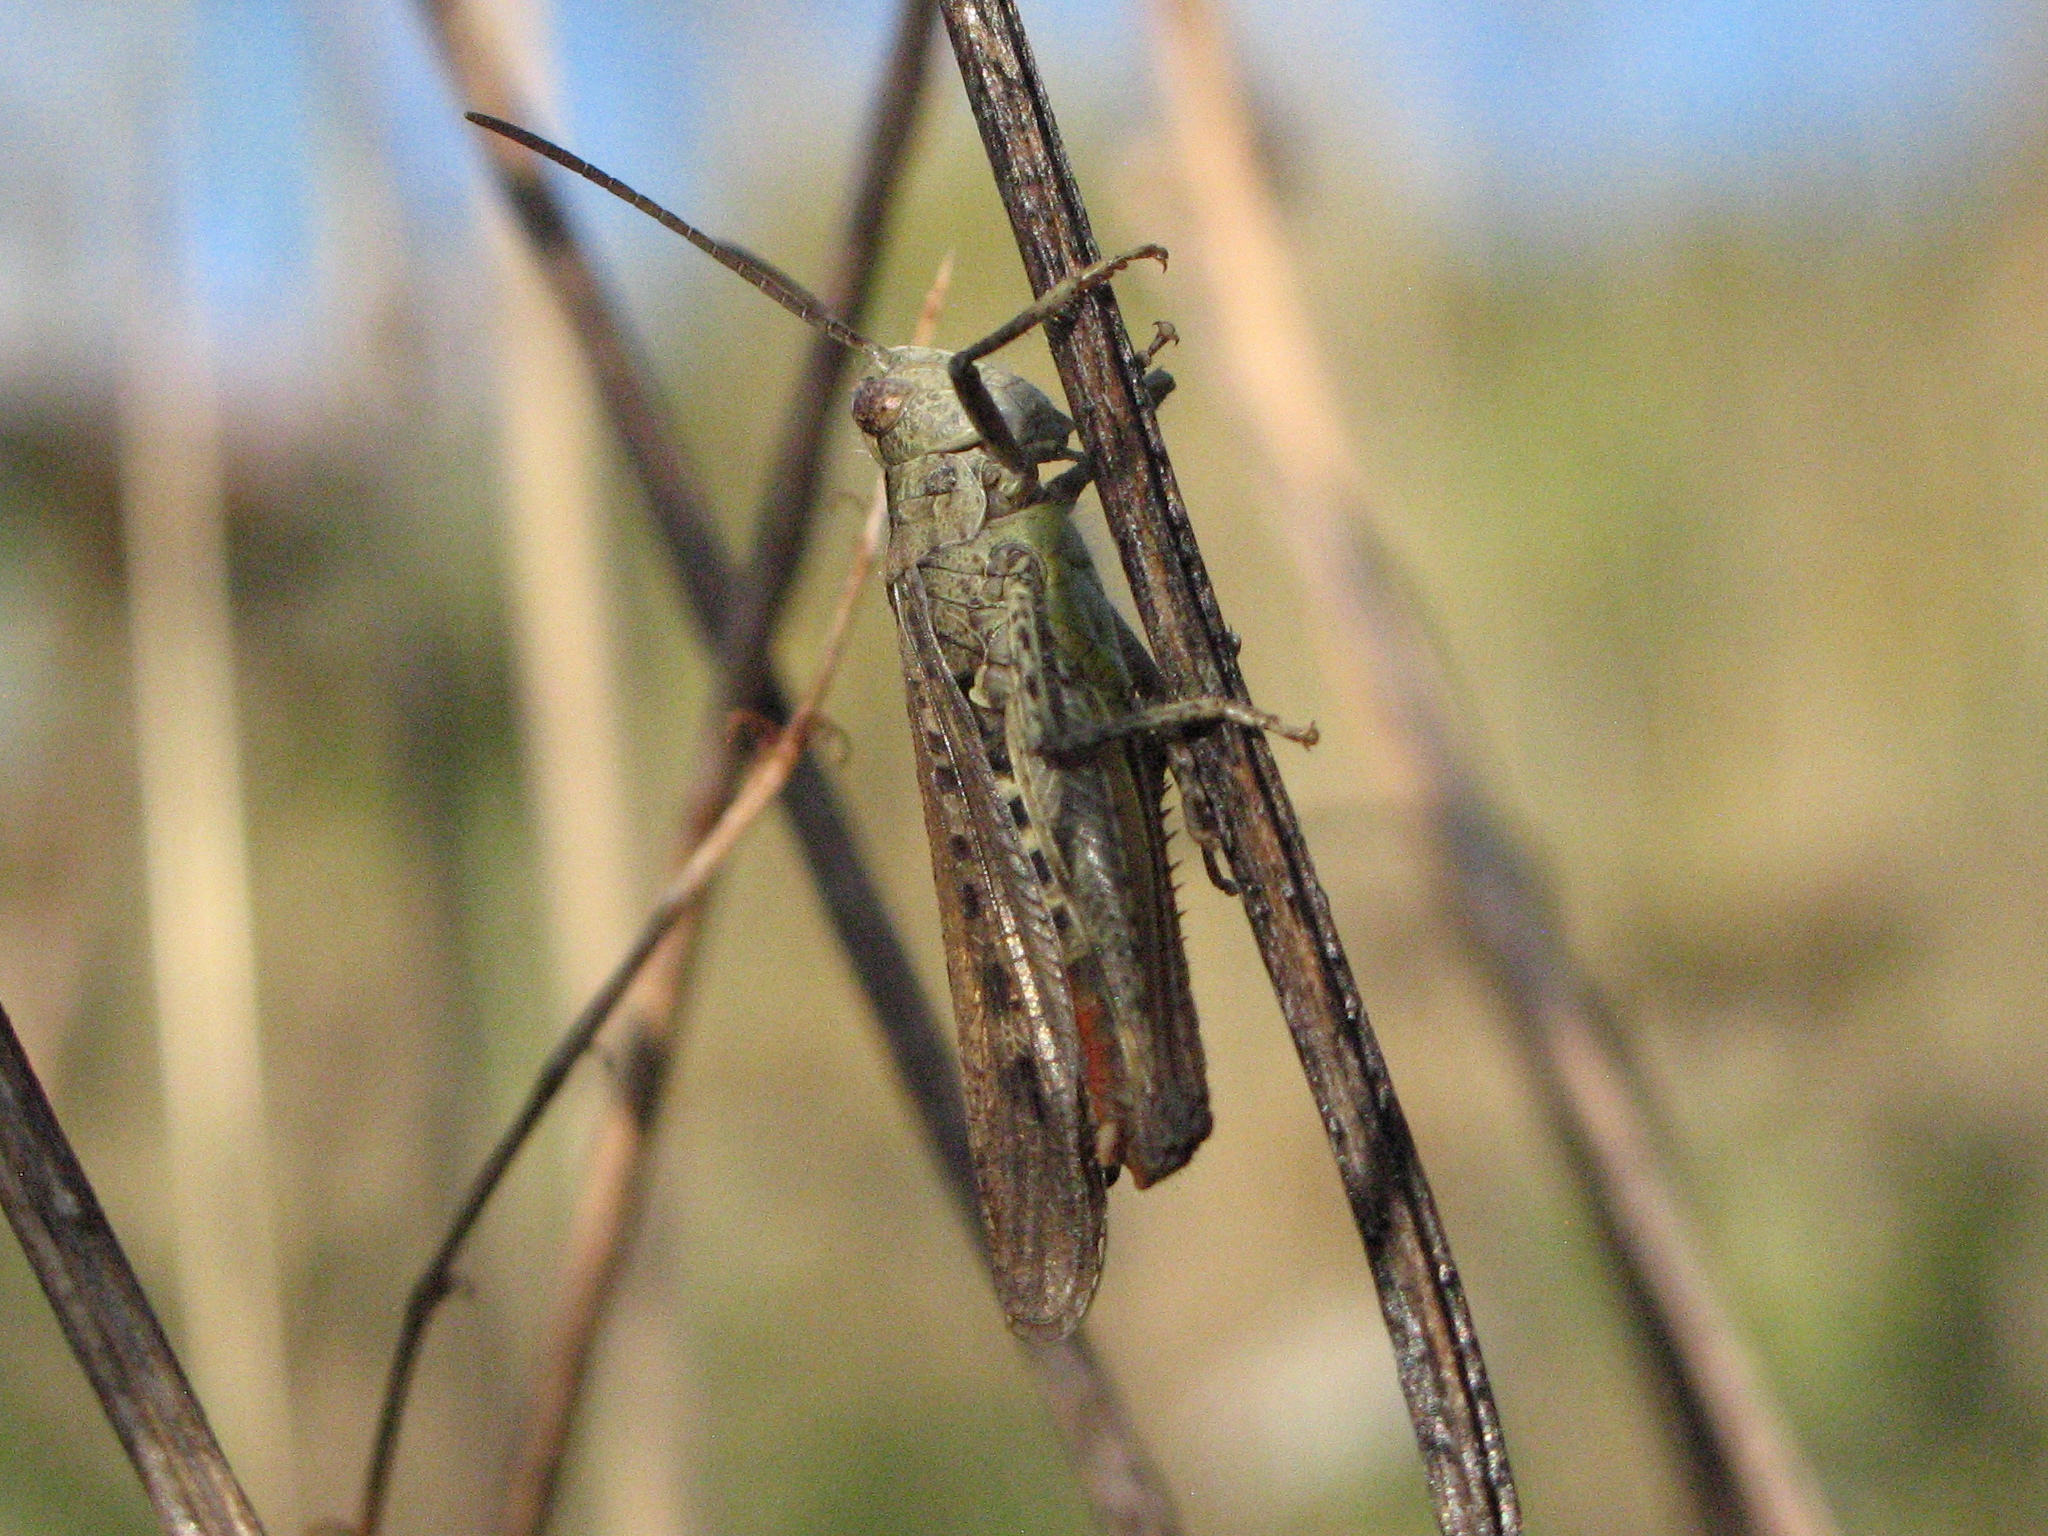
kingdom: Animalia
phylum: Arthropoda
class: Insecta
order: Orthoptera
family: Acrididae
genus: Chorthippus
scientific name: Chorthippus brunneus
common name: Field grasshopper
